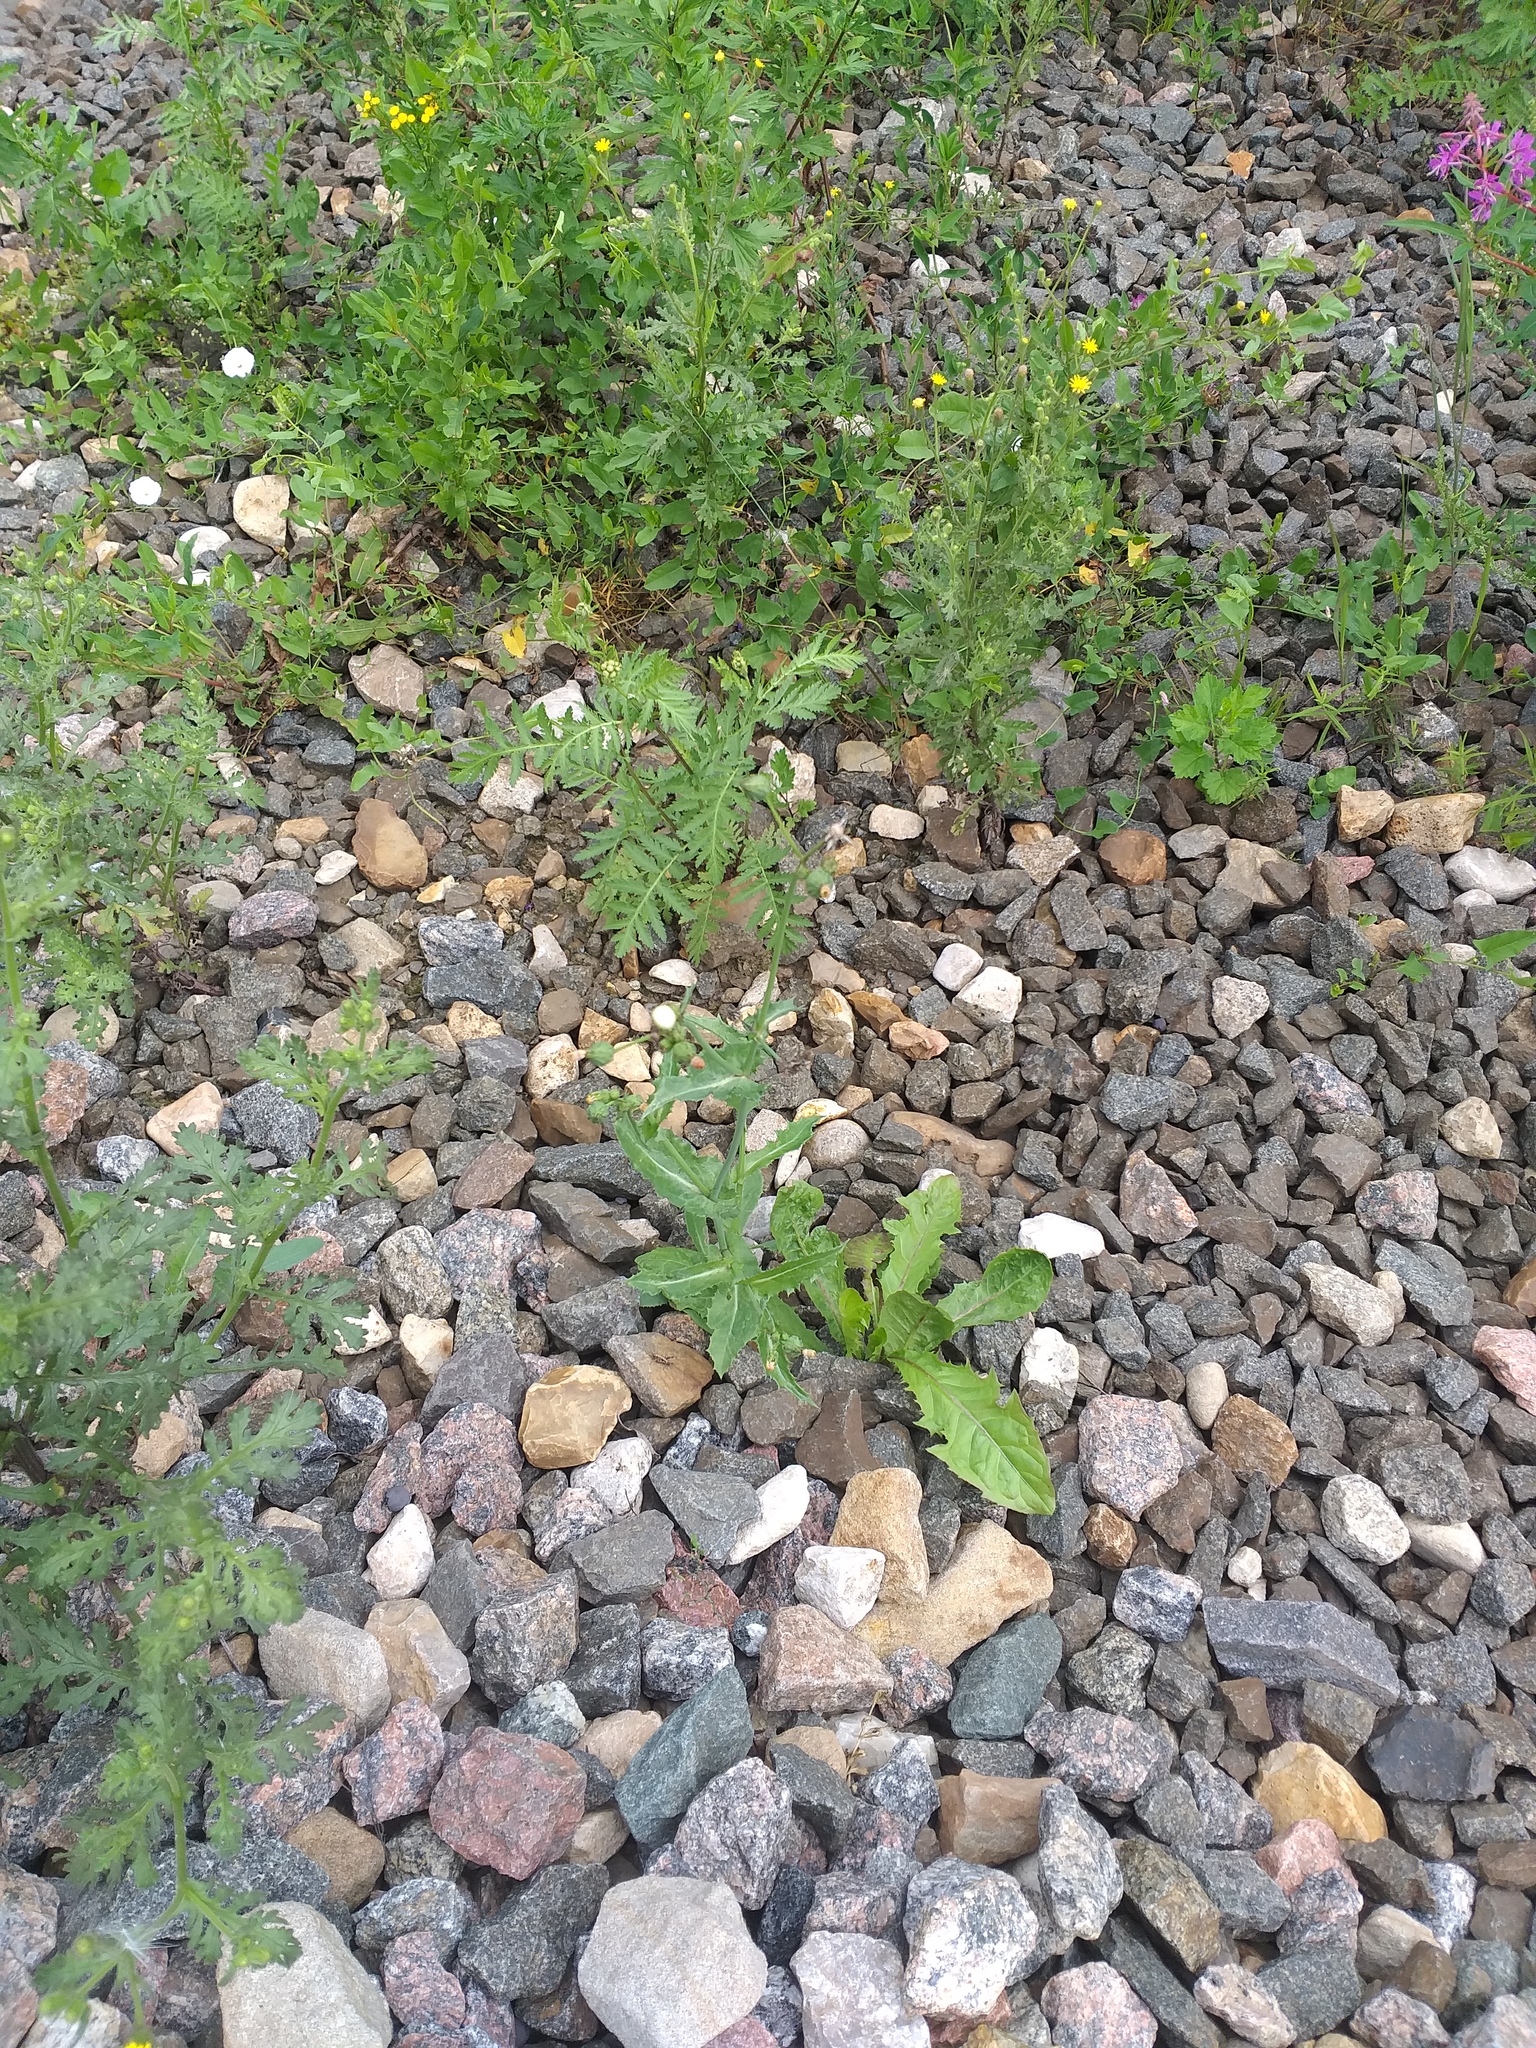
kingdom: Plantae
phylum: Tracheophyta
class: Magnoliopsida
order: Asterales
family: Asteraceae
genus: Sonchus
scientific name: Sonchus asper
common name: Prickly sow-thistle
